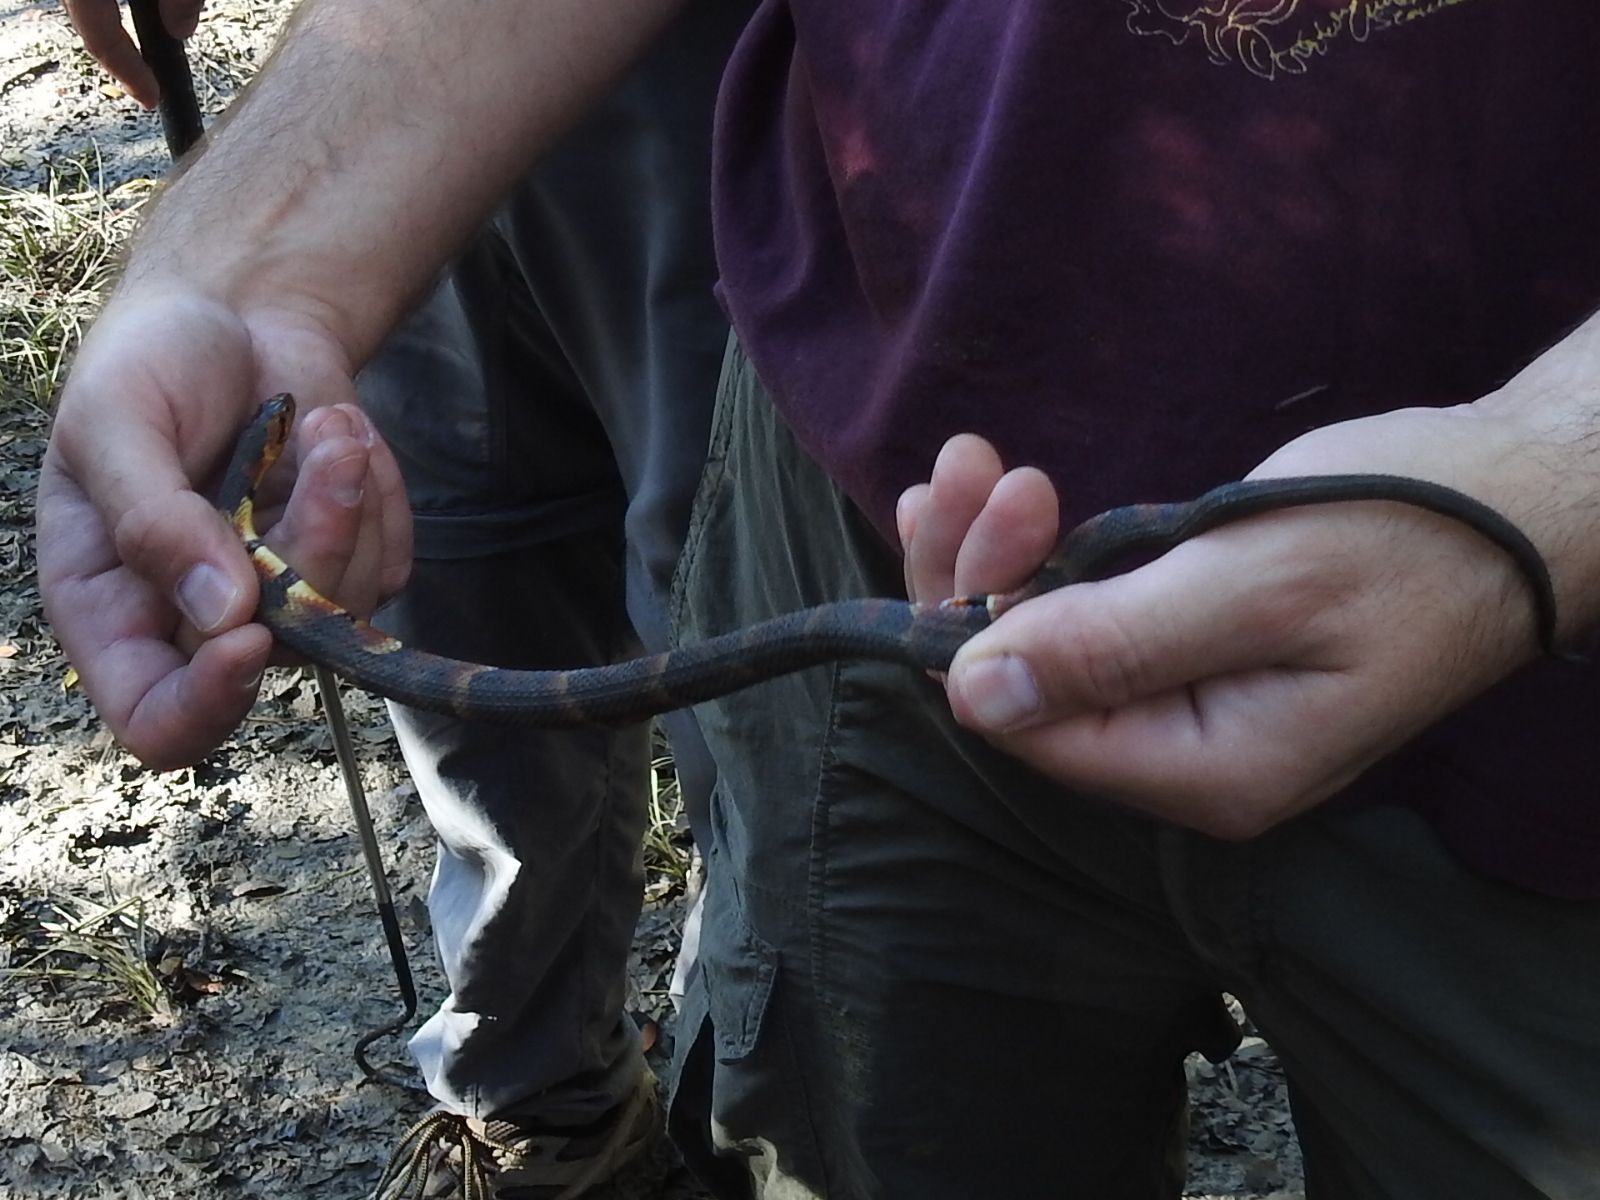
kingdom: Animalia
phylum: Chordata
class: Squamata
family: Colubridae
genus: Nerodia
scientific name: Nerodia fasciata
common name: Southern water snake
